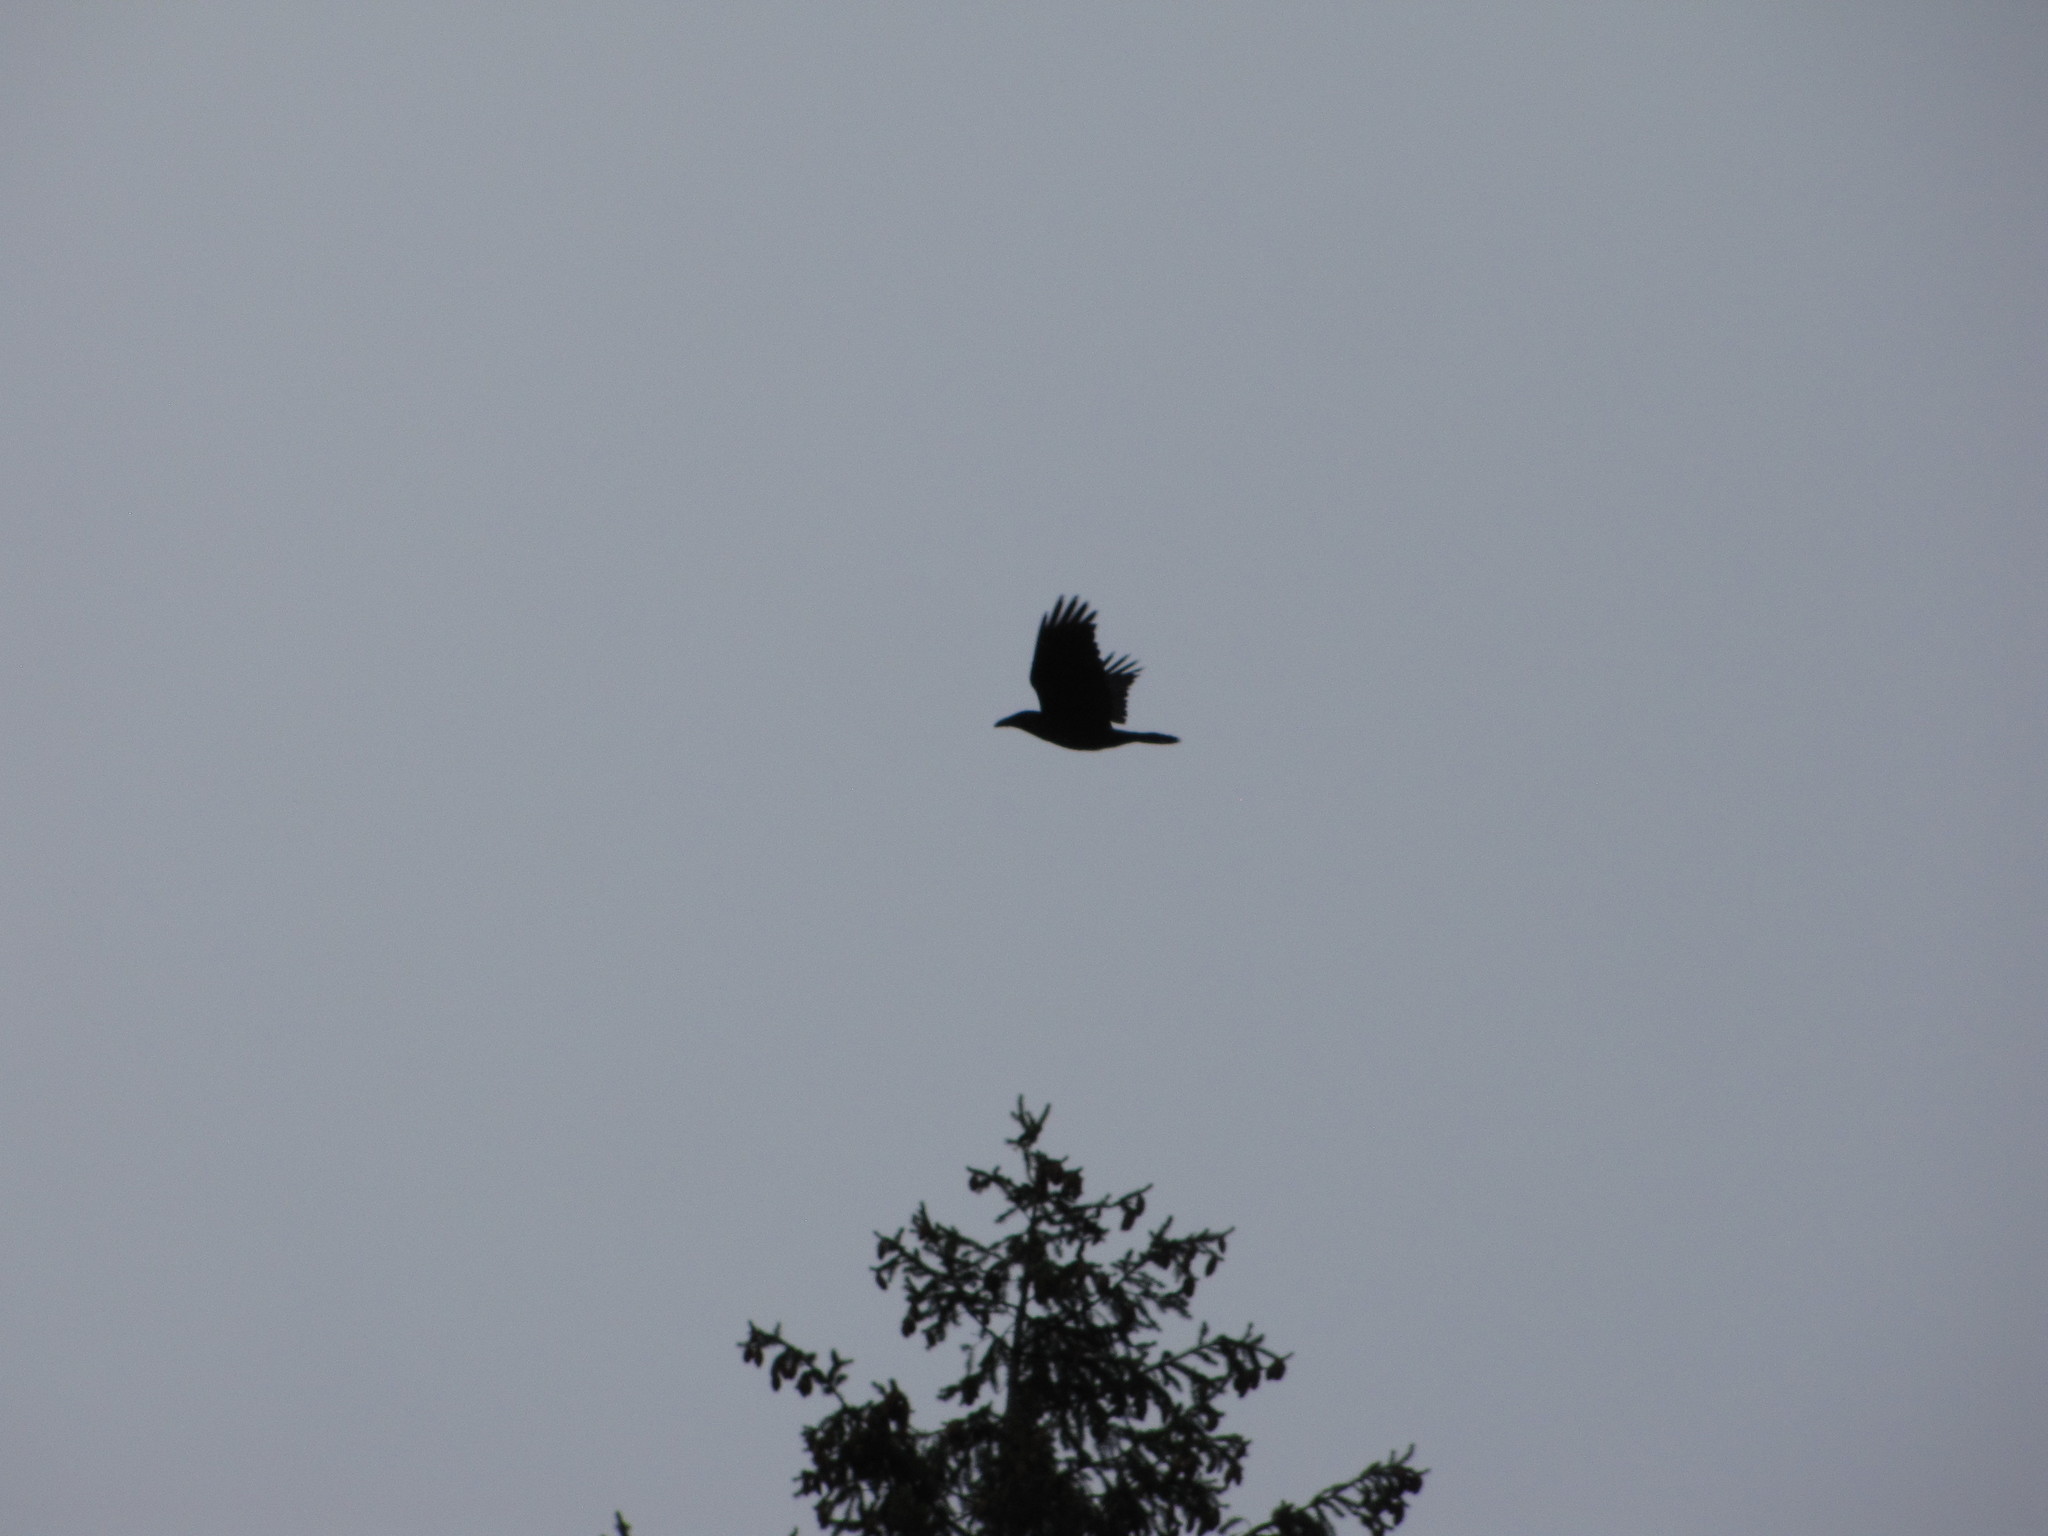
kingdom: Animalia
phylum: Chordata
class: Aves
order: Passeriformes
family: Corvidae
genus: Corvus
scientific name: Corvus corax
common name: Common raven
